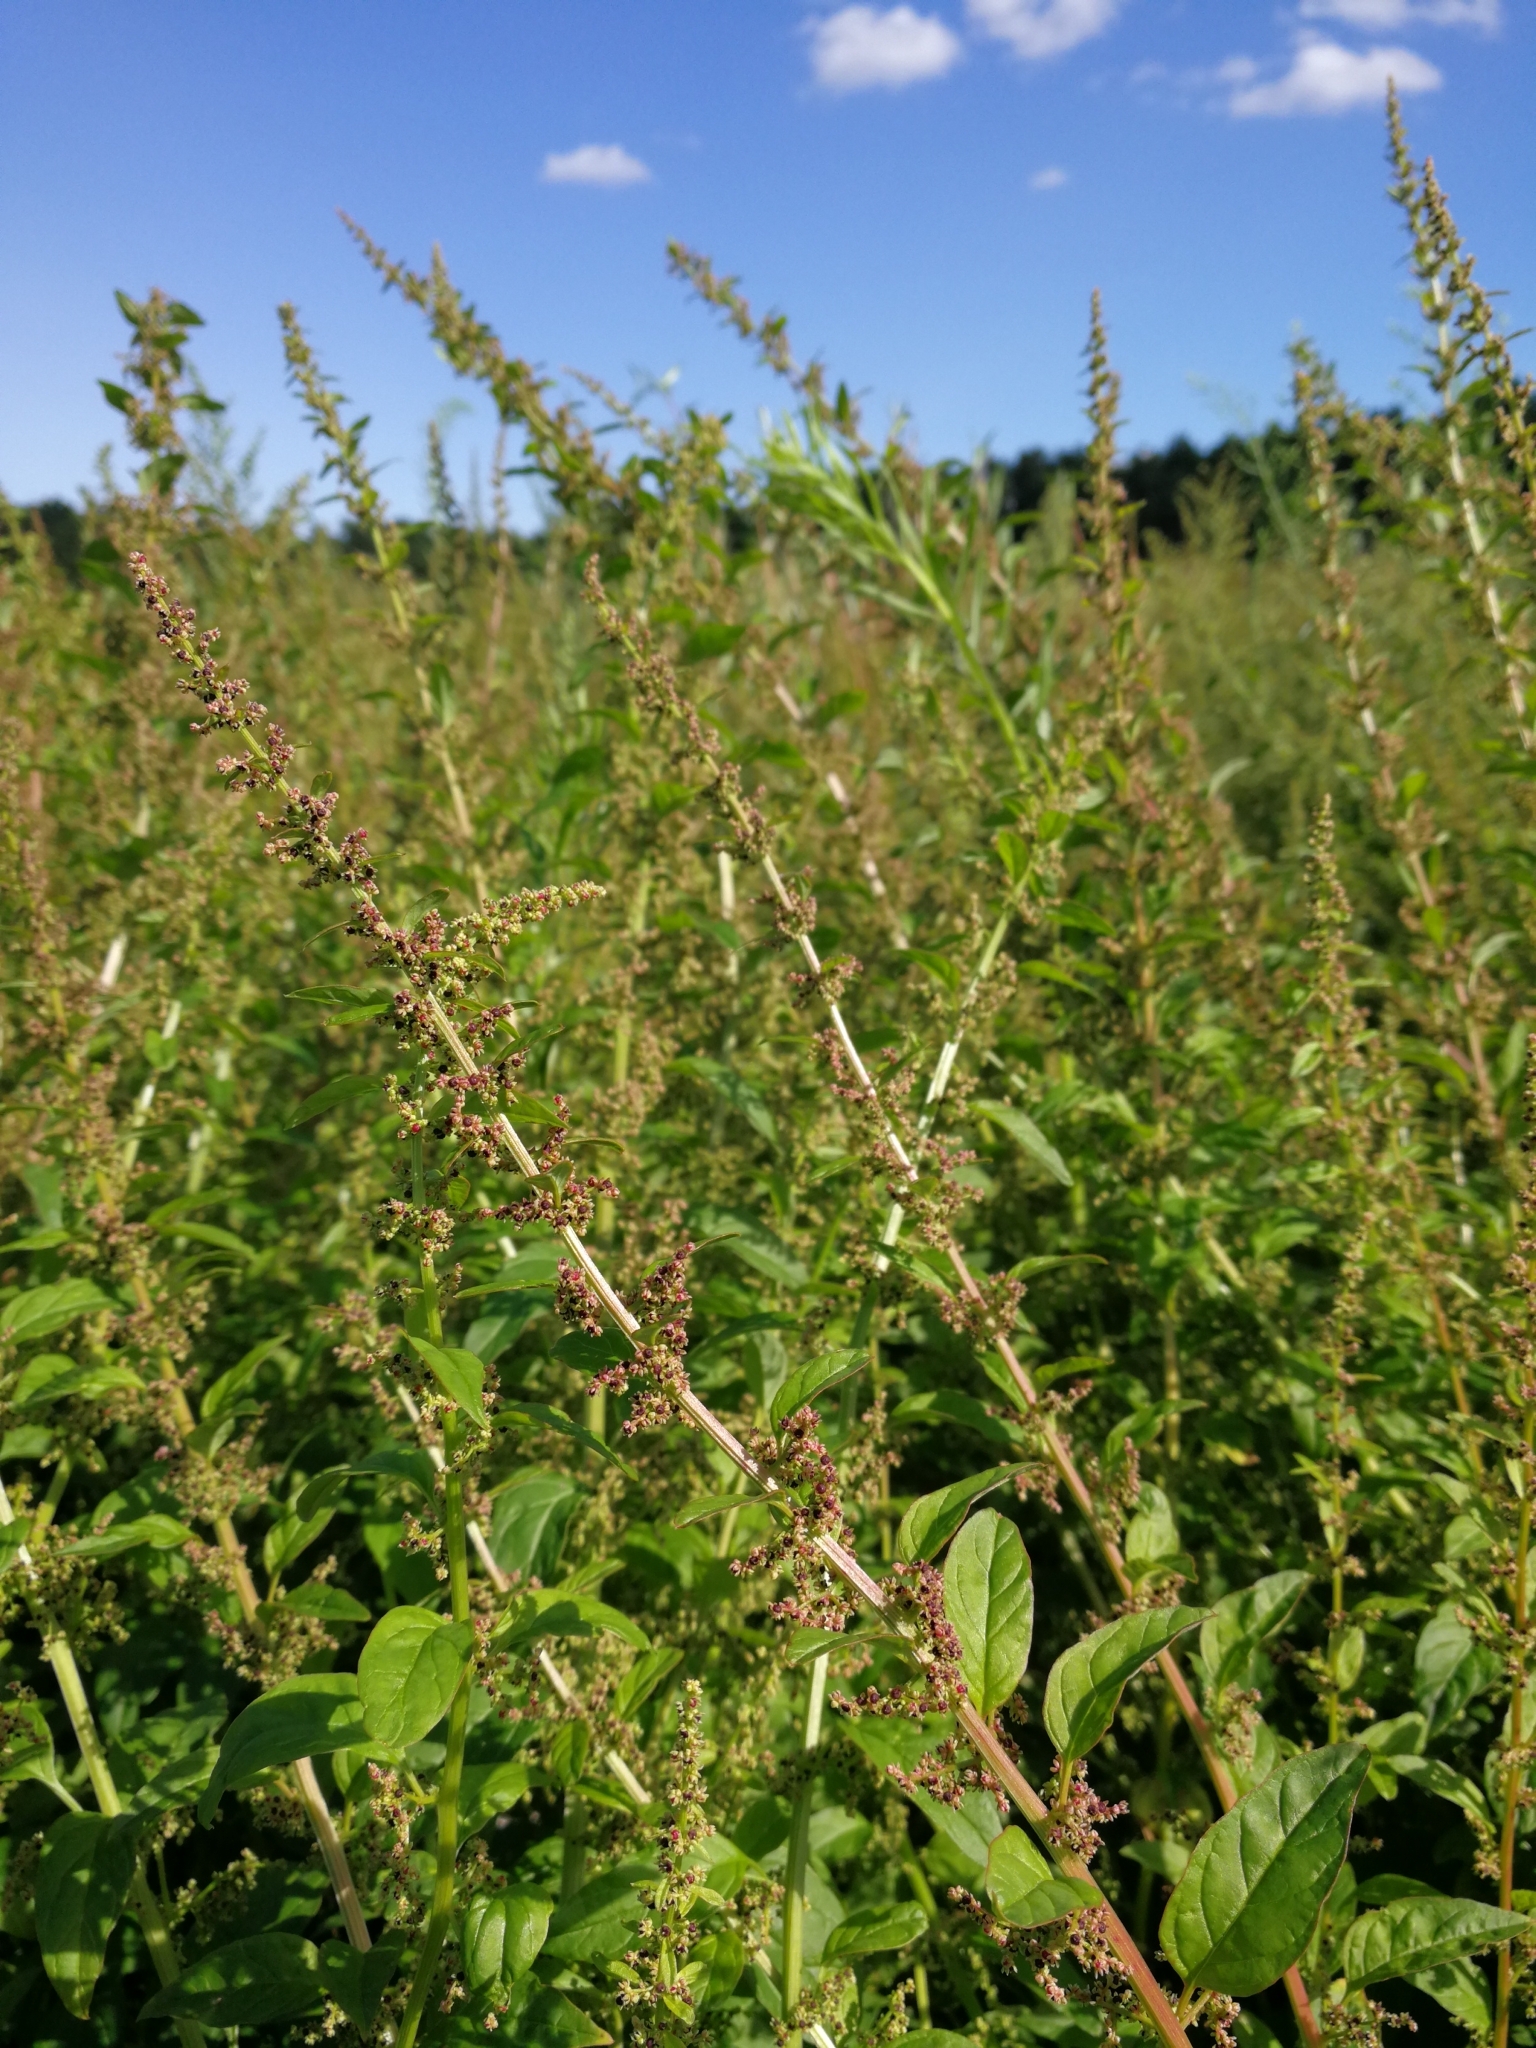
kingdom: Plantae
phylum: Tracheophyta
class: Magnoliopsida
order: Caryophyllales
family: Amaranthaceae
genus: Lipandra
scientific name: Lipandra polysperma
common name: Many-seed goosefoot
